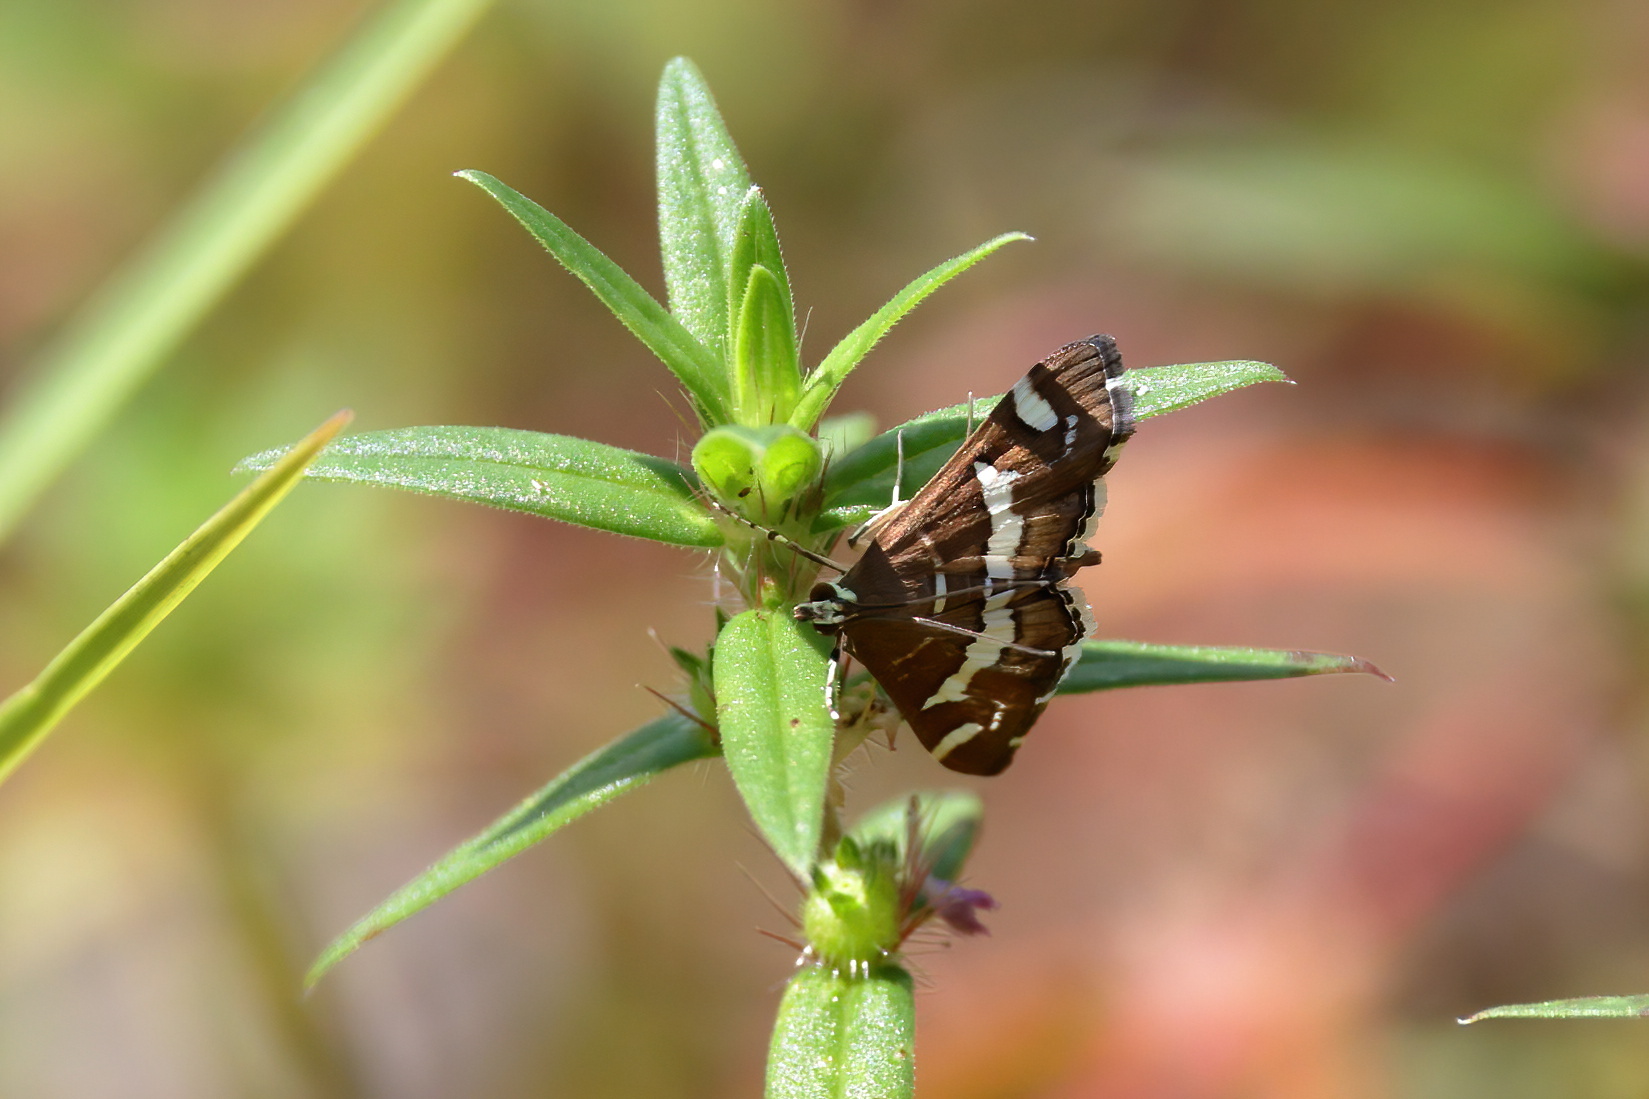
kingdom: Animalia
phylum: Arthropoda
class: Insecta
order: Lepidoptera
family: Crambidae
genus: Spoladea
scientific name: Spoladea recurvalis
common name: Beet webworm moth
